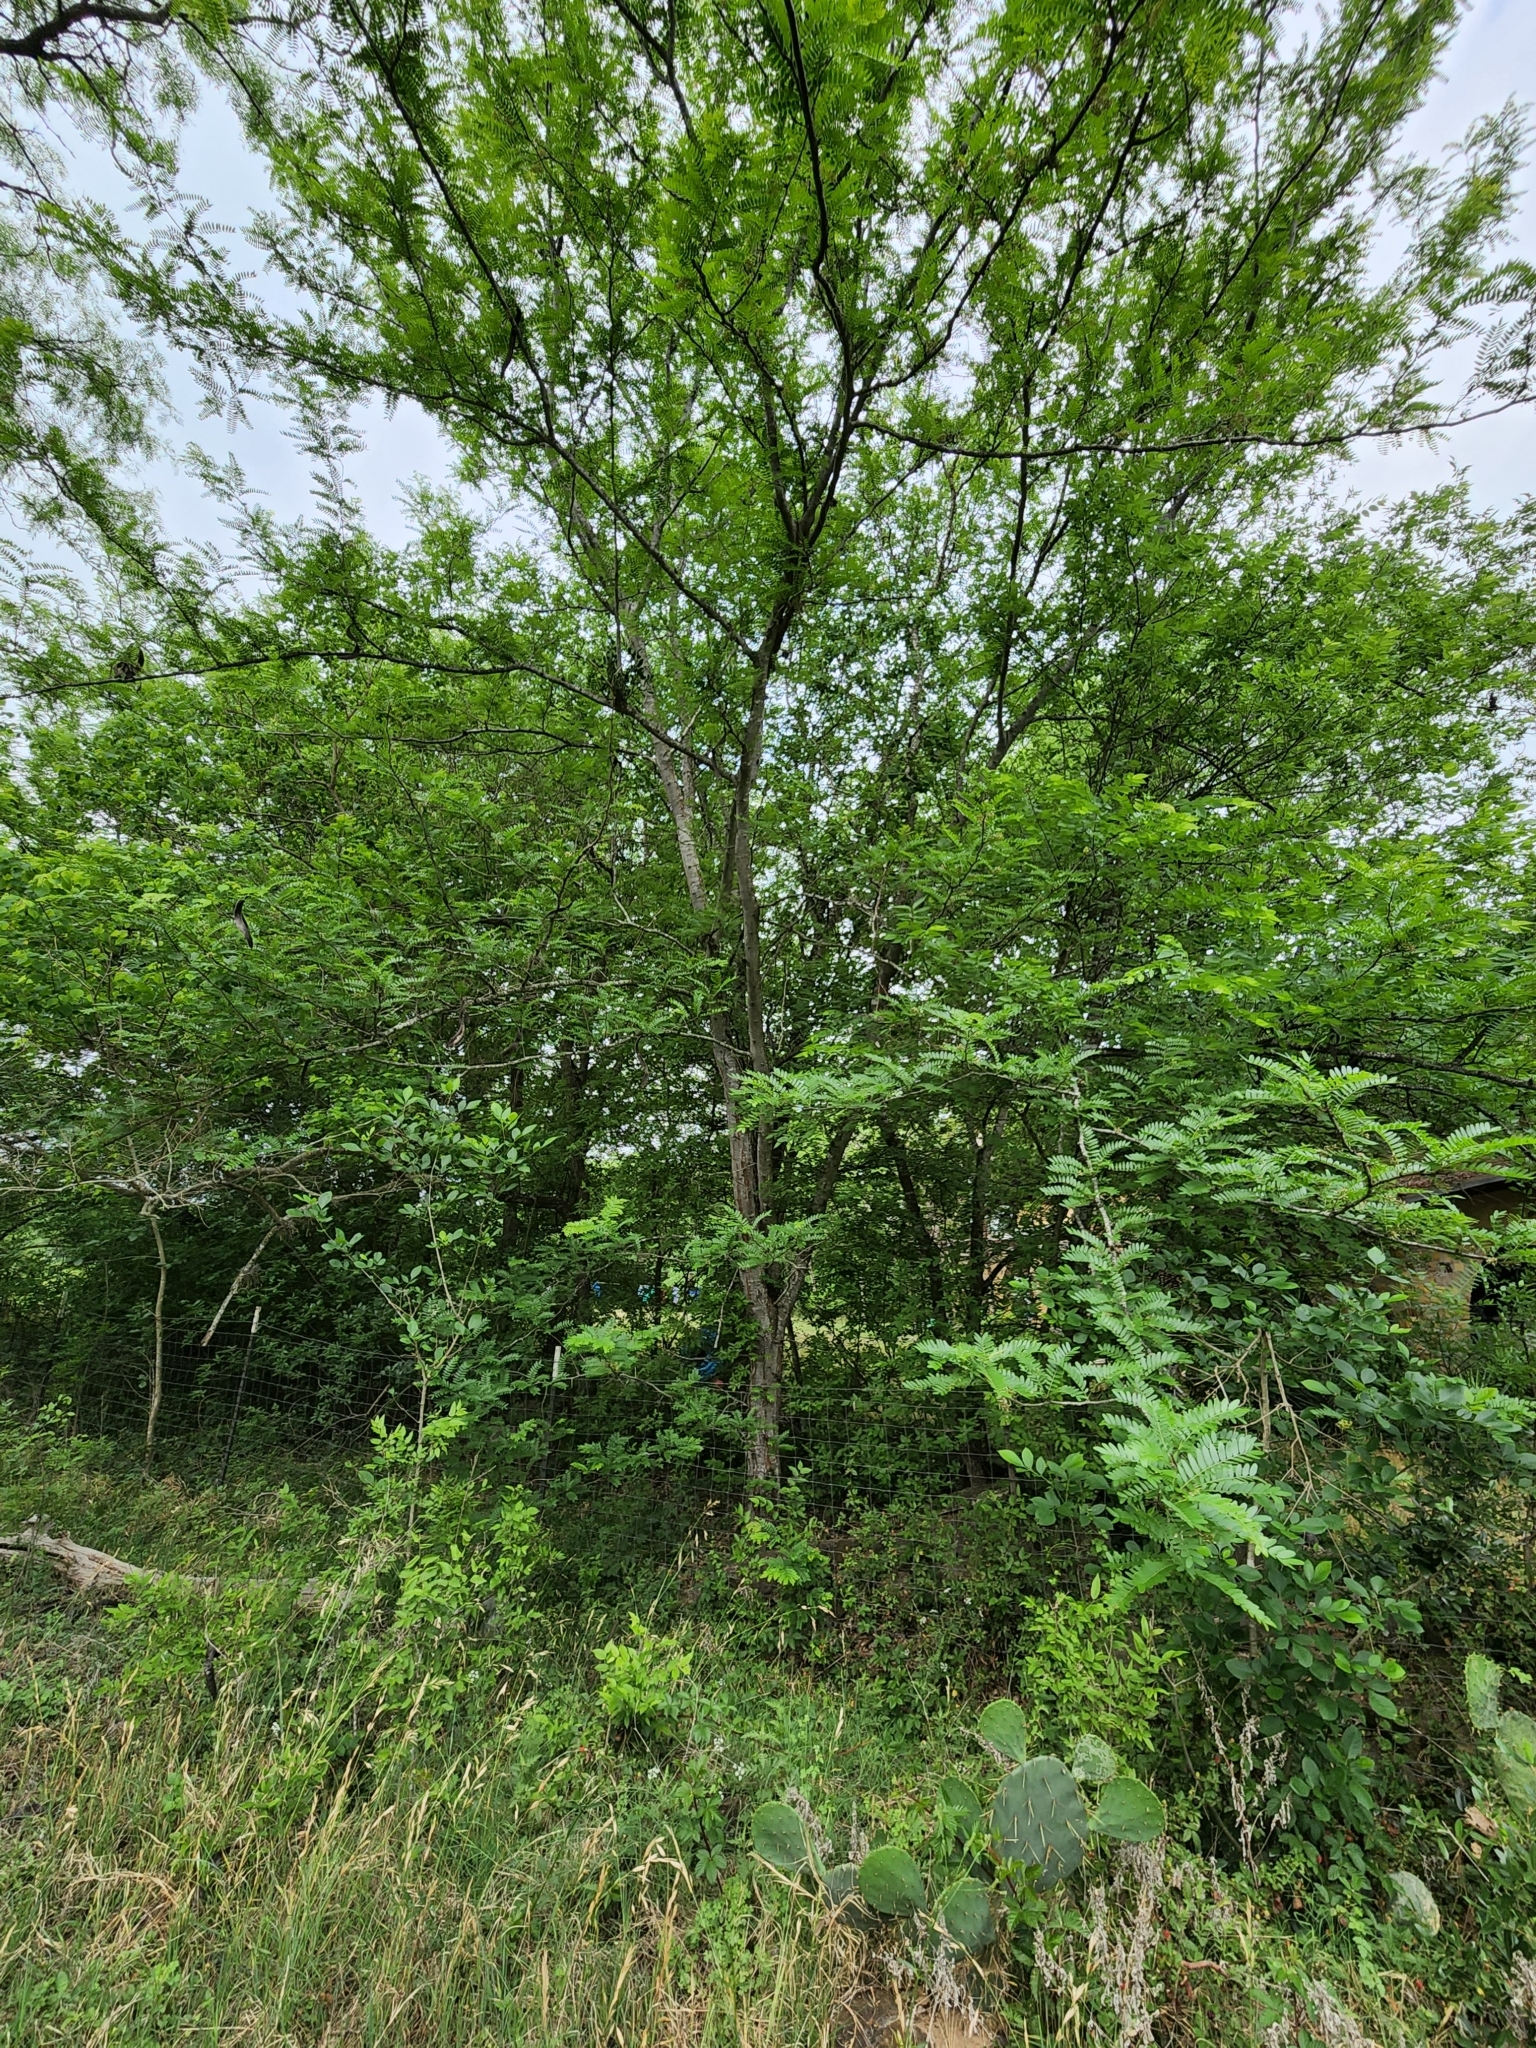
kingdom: Plantae
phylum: Tracheophyta
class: Magnoliopsida
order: Fabales
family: Fabaceae
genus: Gleditsia
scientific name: Gleditsia triacanthos
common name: Common honeylocust
